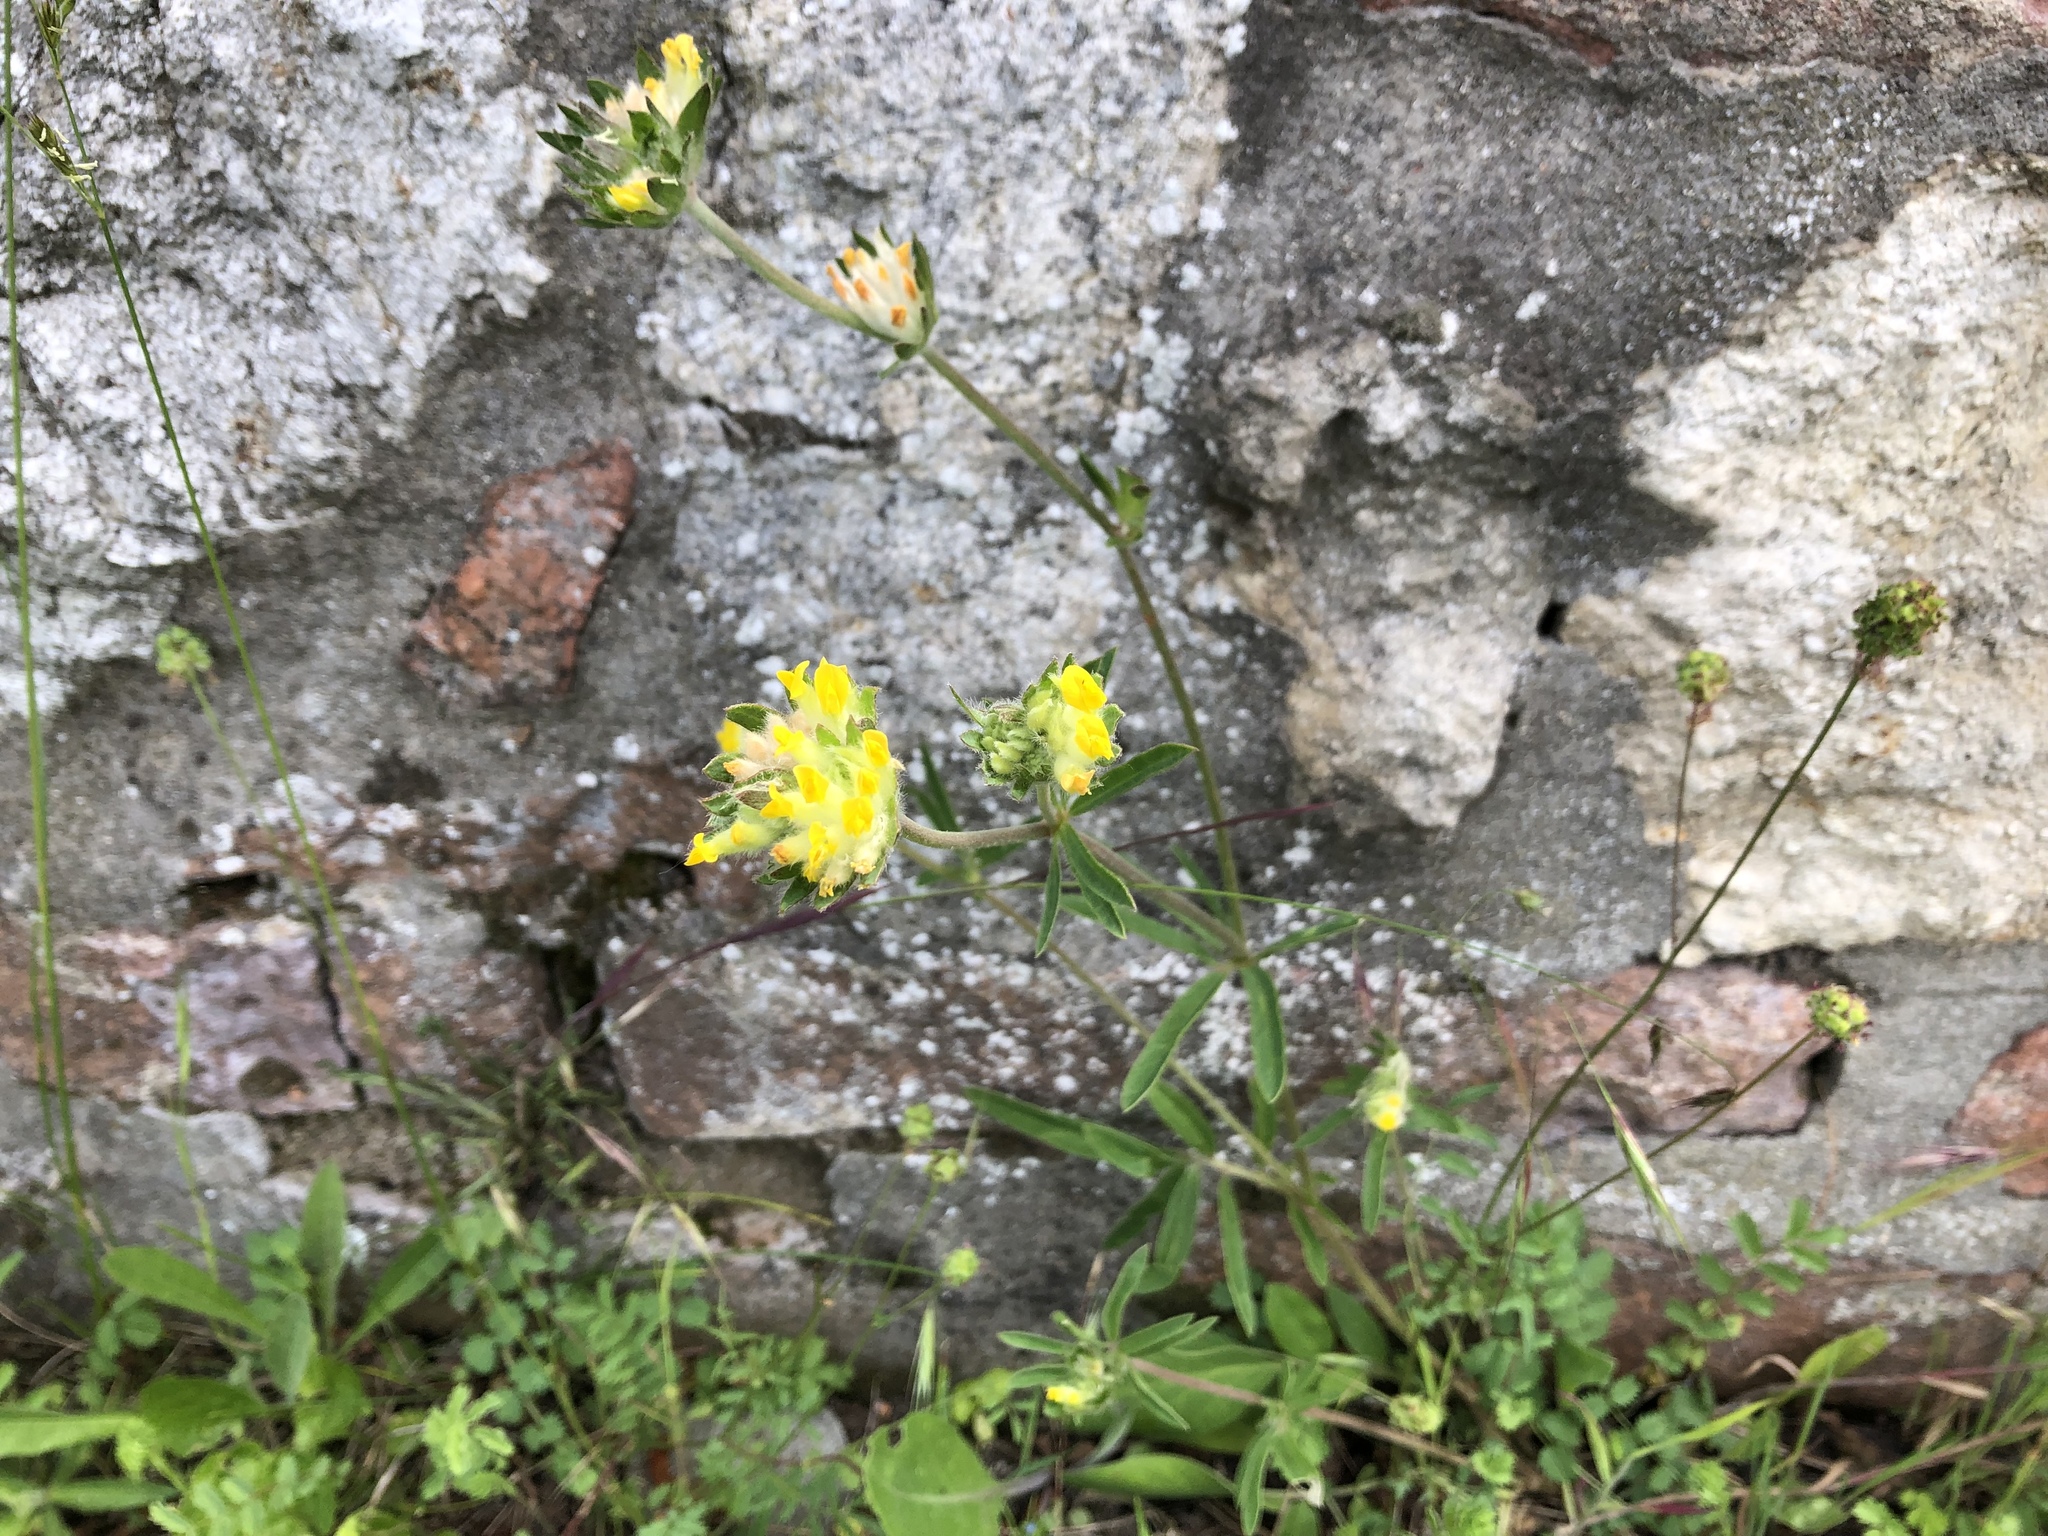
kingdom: Plantae
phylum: Tracheophyta
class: Magnoliopsida
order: Fabales
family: Fabaceae
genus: Anthyllis
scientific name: Anthyllis vulneraria
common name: Kidney vetch
